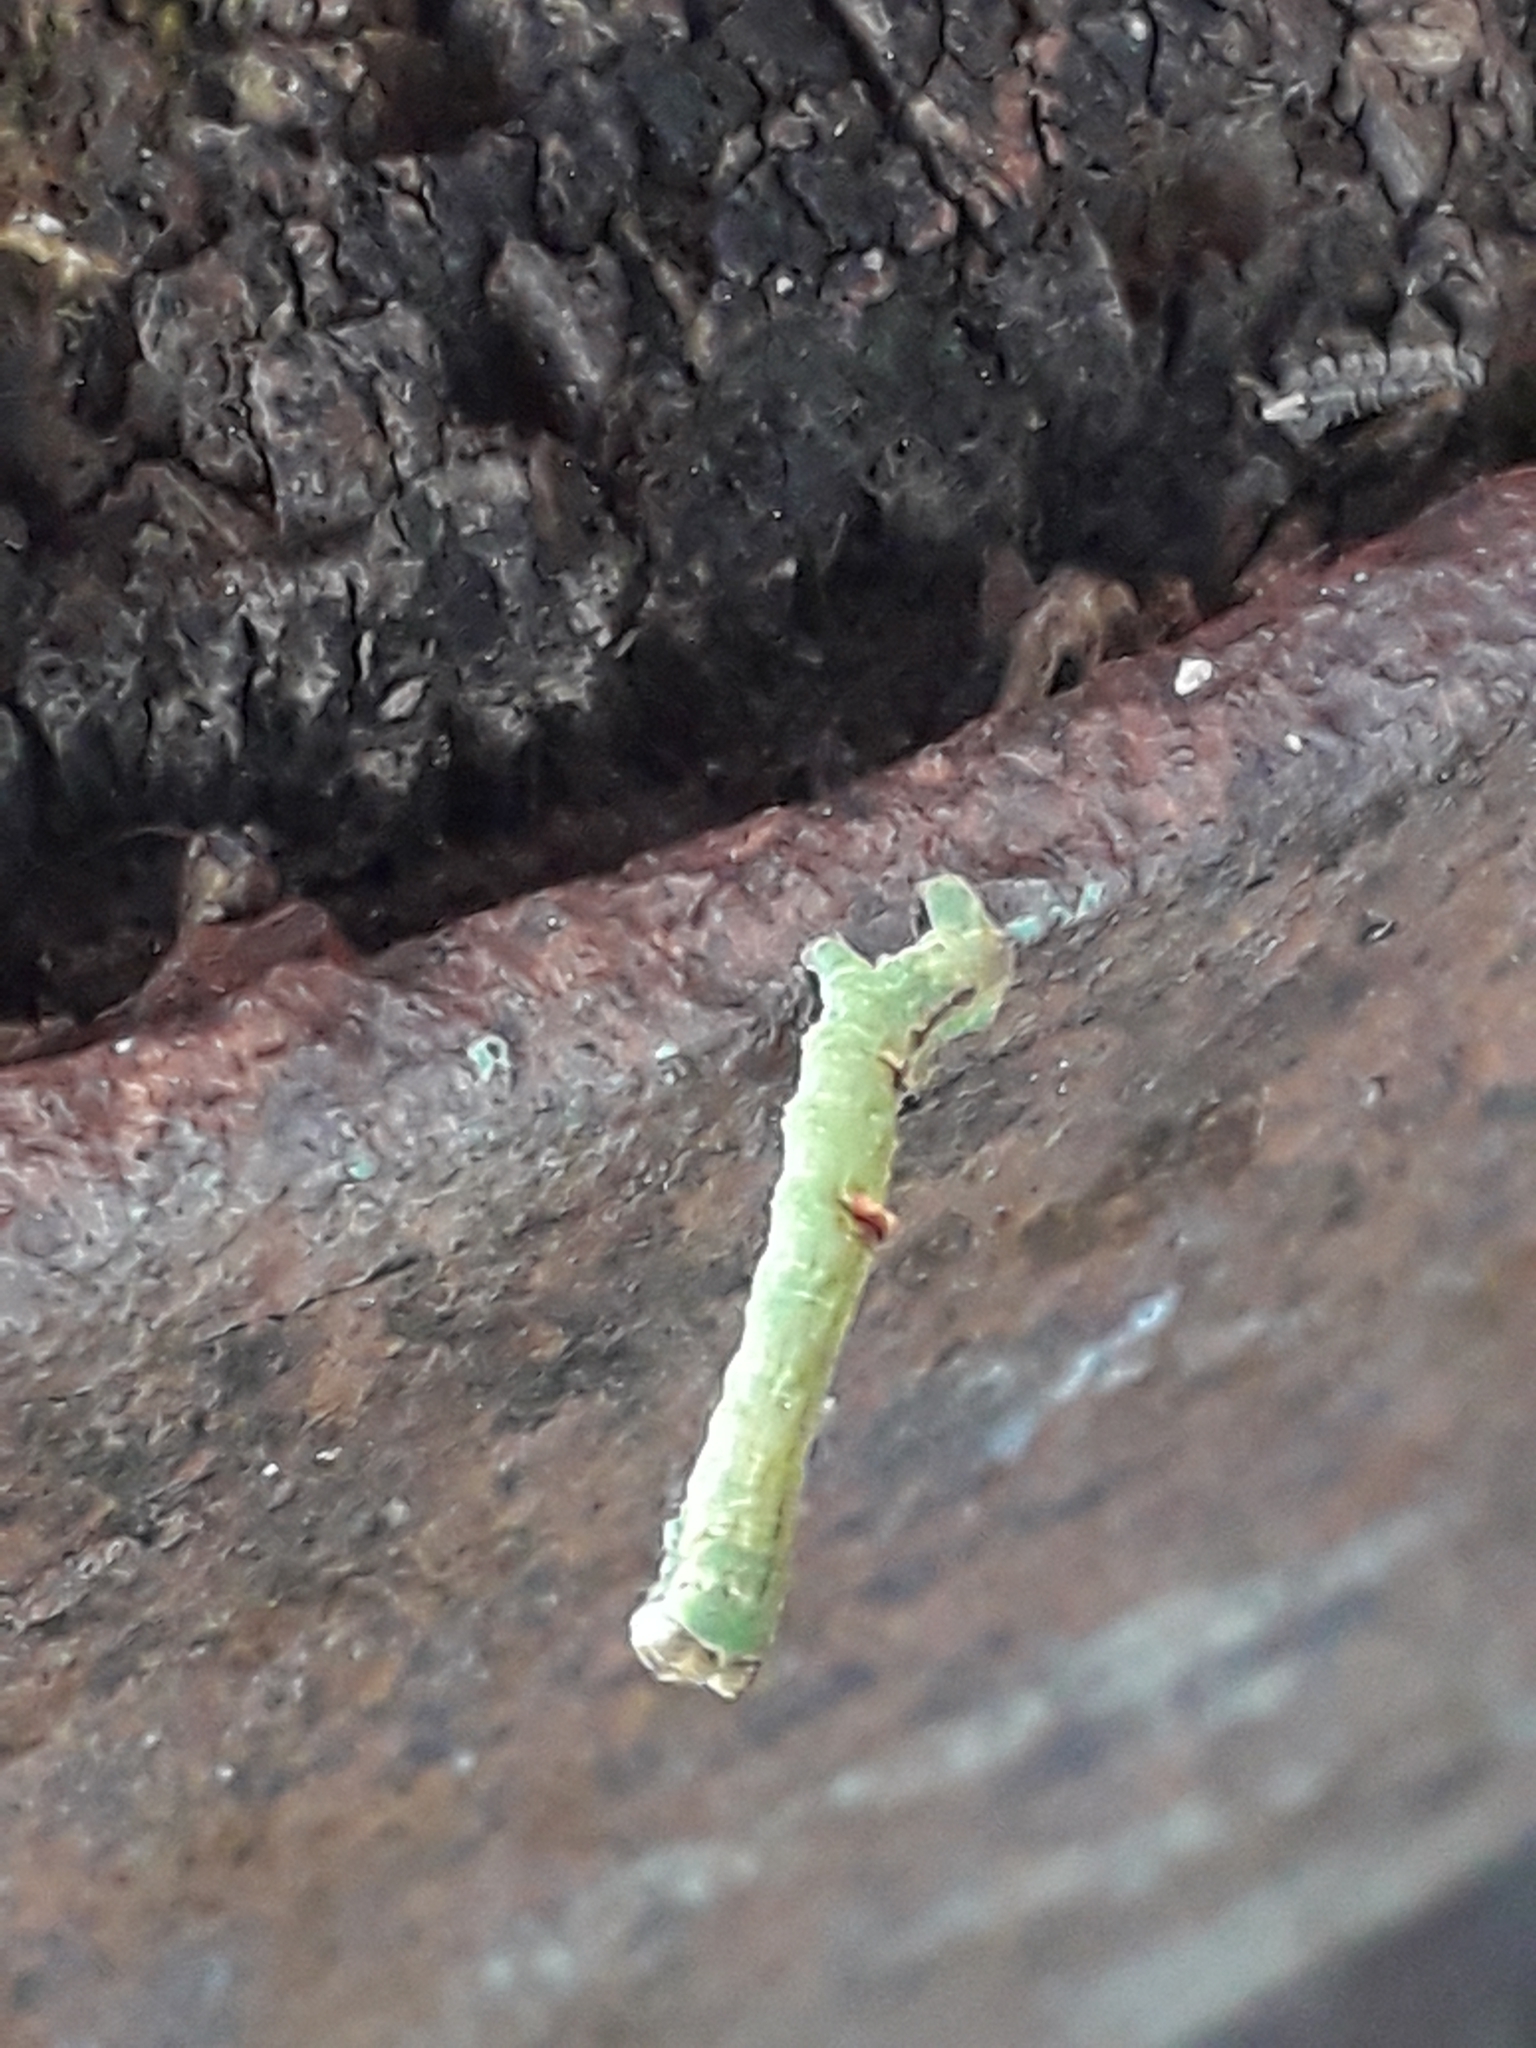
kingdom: Animalia
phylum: Arthropoda
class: Insecta
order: Lepidoptera
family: Geometridae
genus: Opisthograptis
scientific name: Opisthograptis luteolata
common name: Brimstone moth
